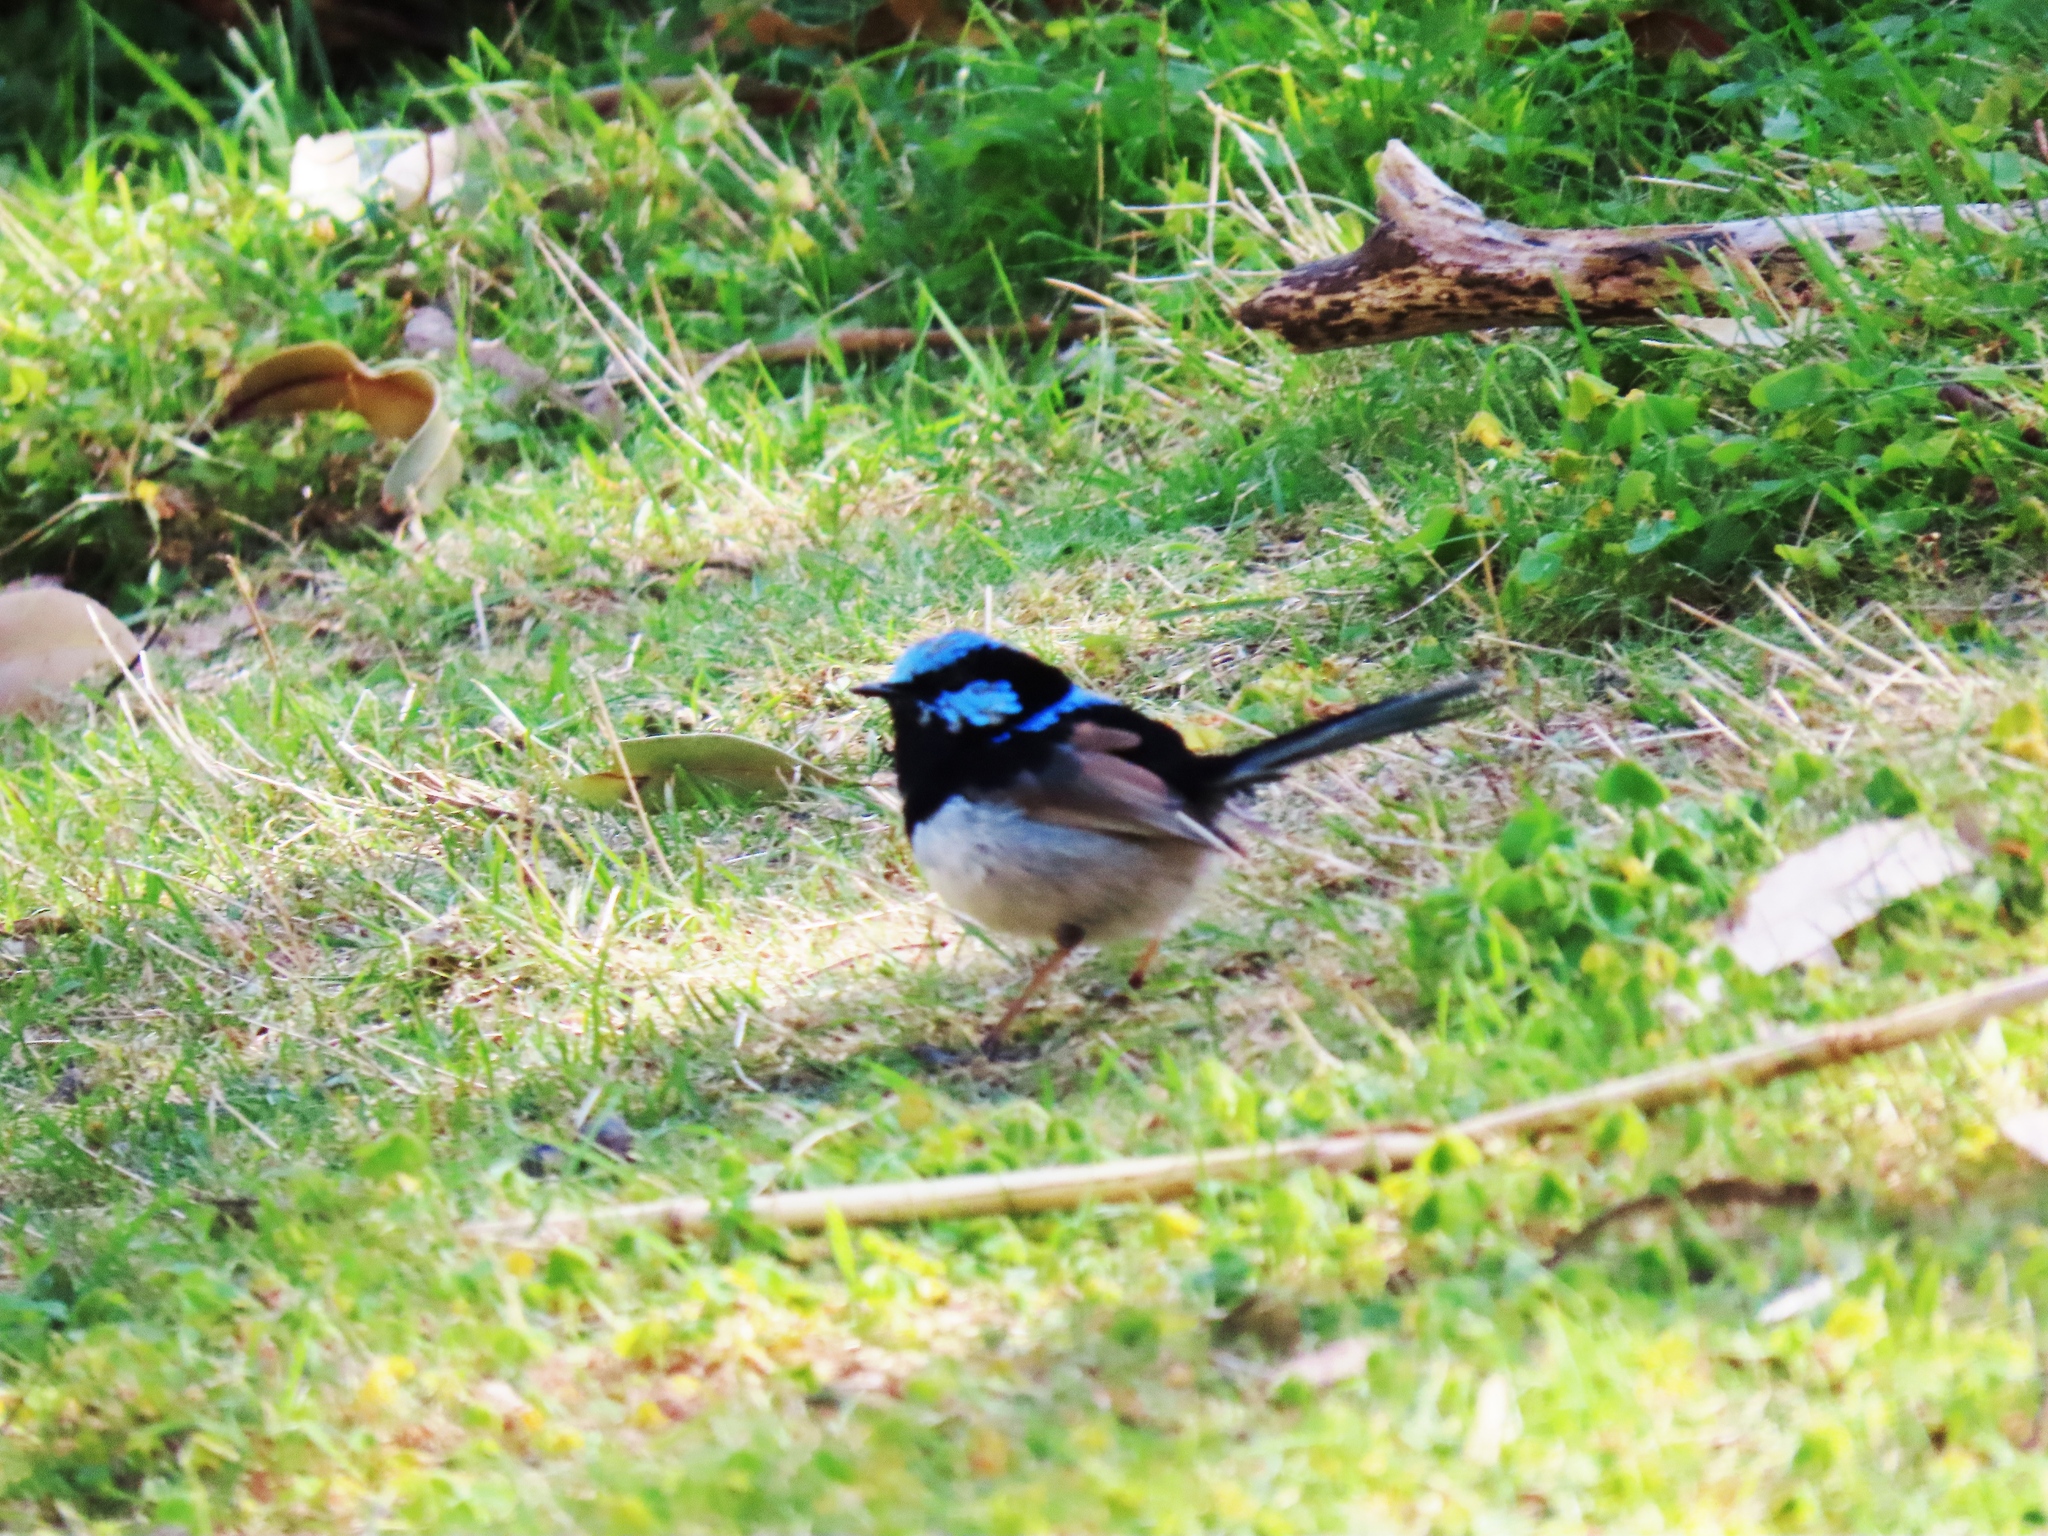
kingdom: Animalia
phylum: Chordata
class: Aves
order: Passeriformes
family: Maluridae
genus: Malurus
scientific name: Malurus cyaneus
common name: Superb fairywren
